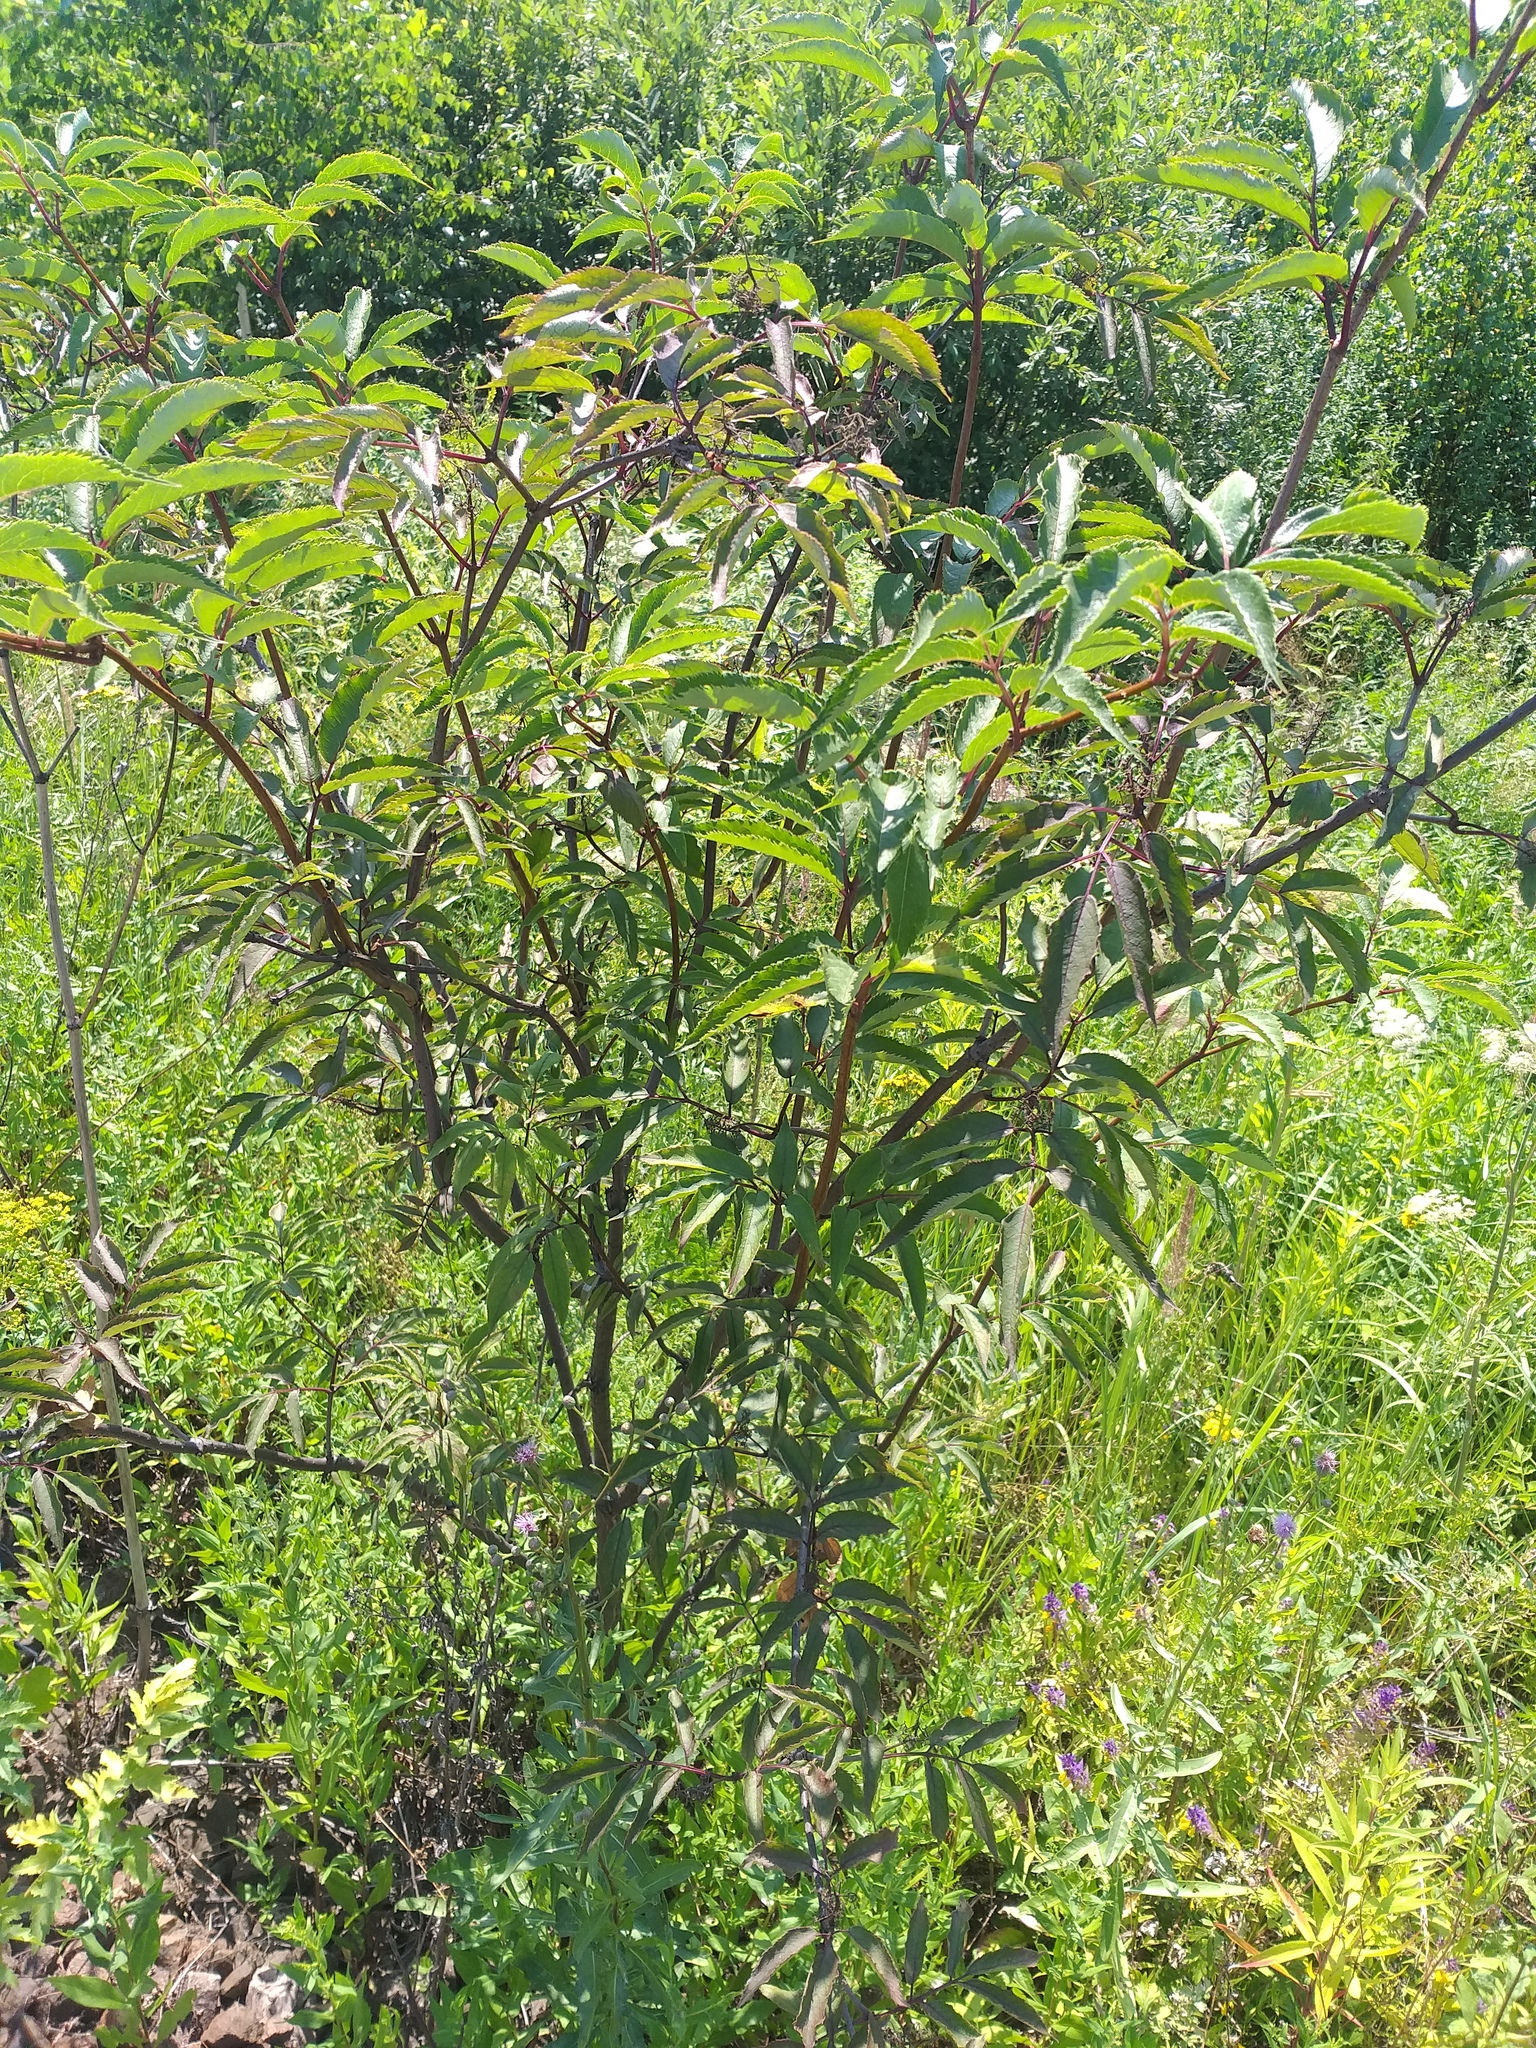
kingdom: Plantae
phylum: Tracheophyta
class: Magnoliopsida
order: Dipsacales
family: Viburnaceae
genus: Sambucus
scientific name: Sambucus racemosa
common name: Red-berried elder
